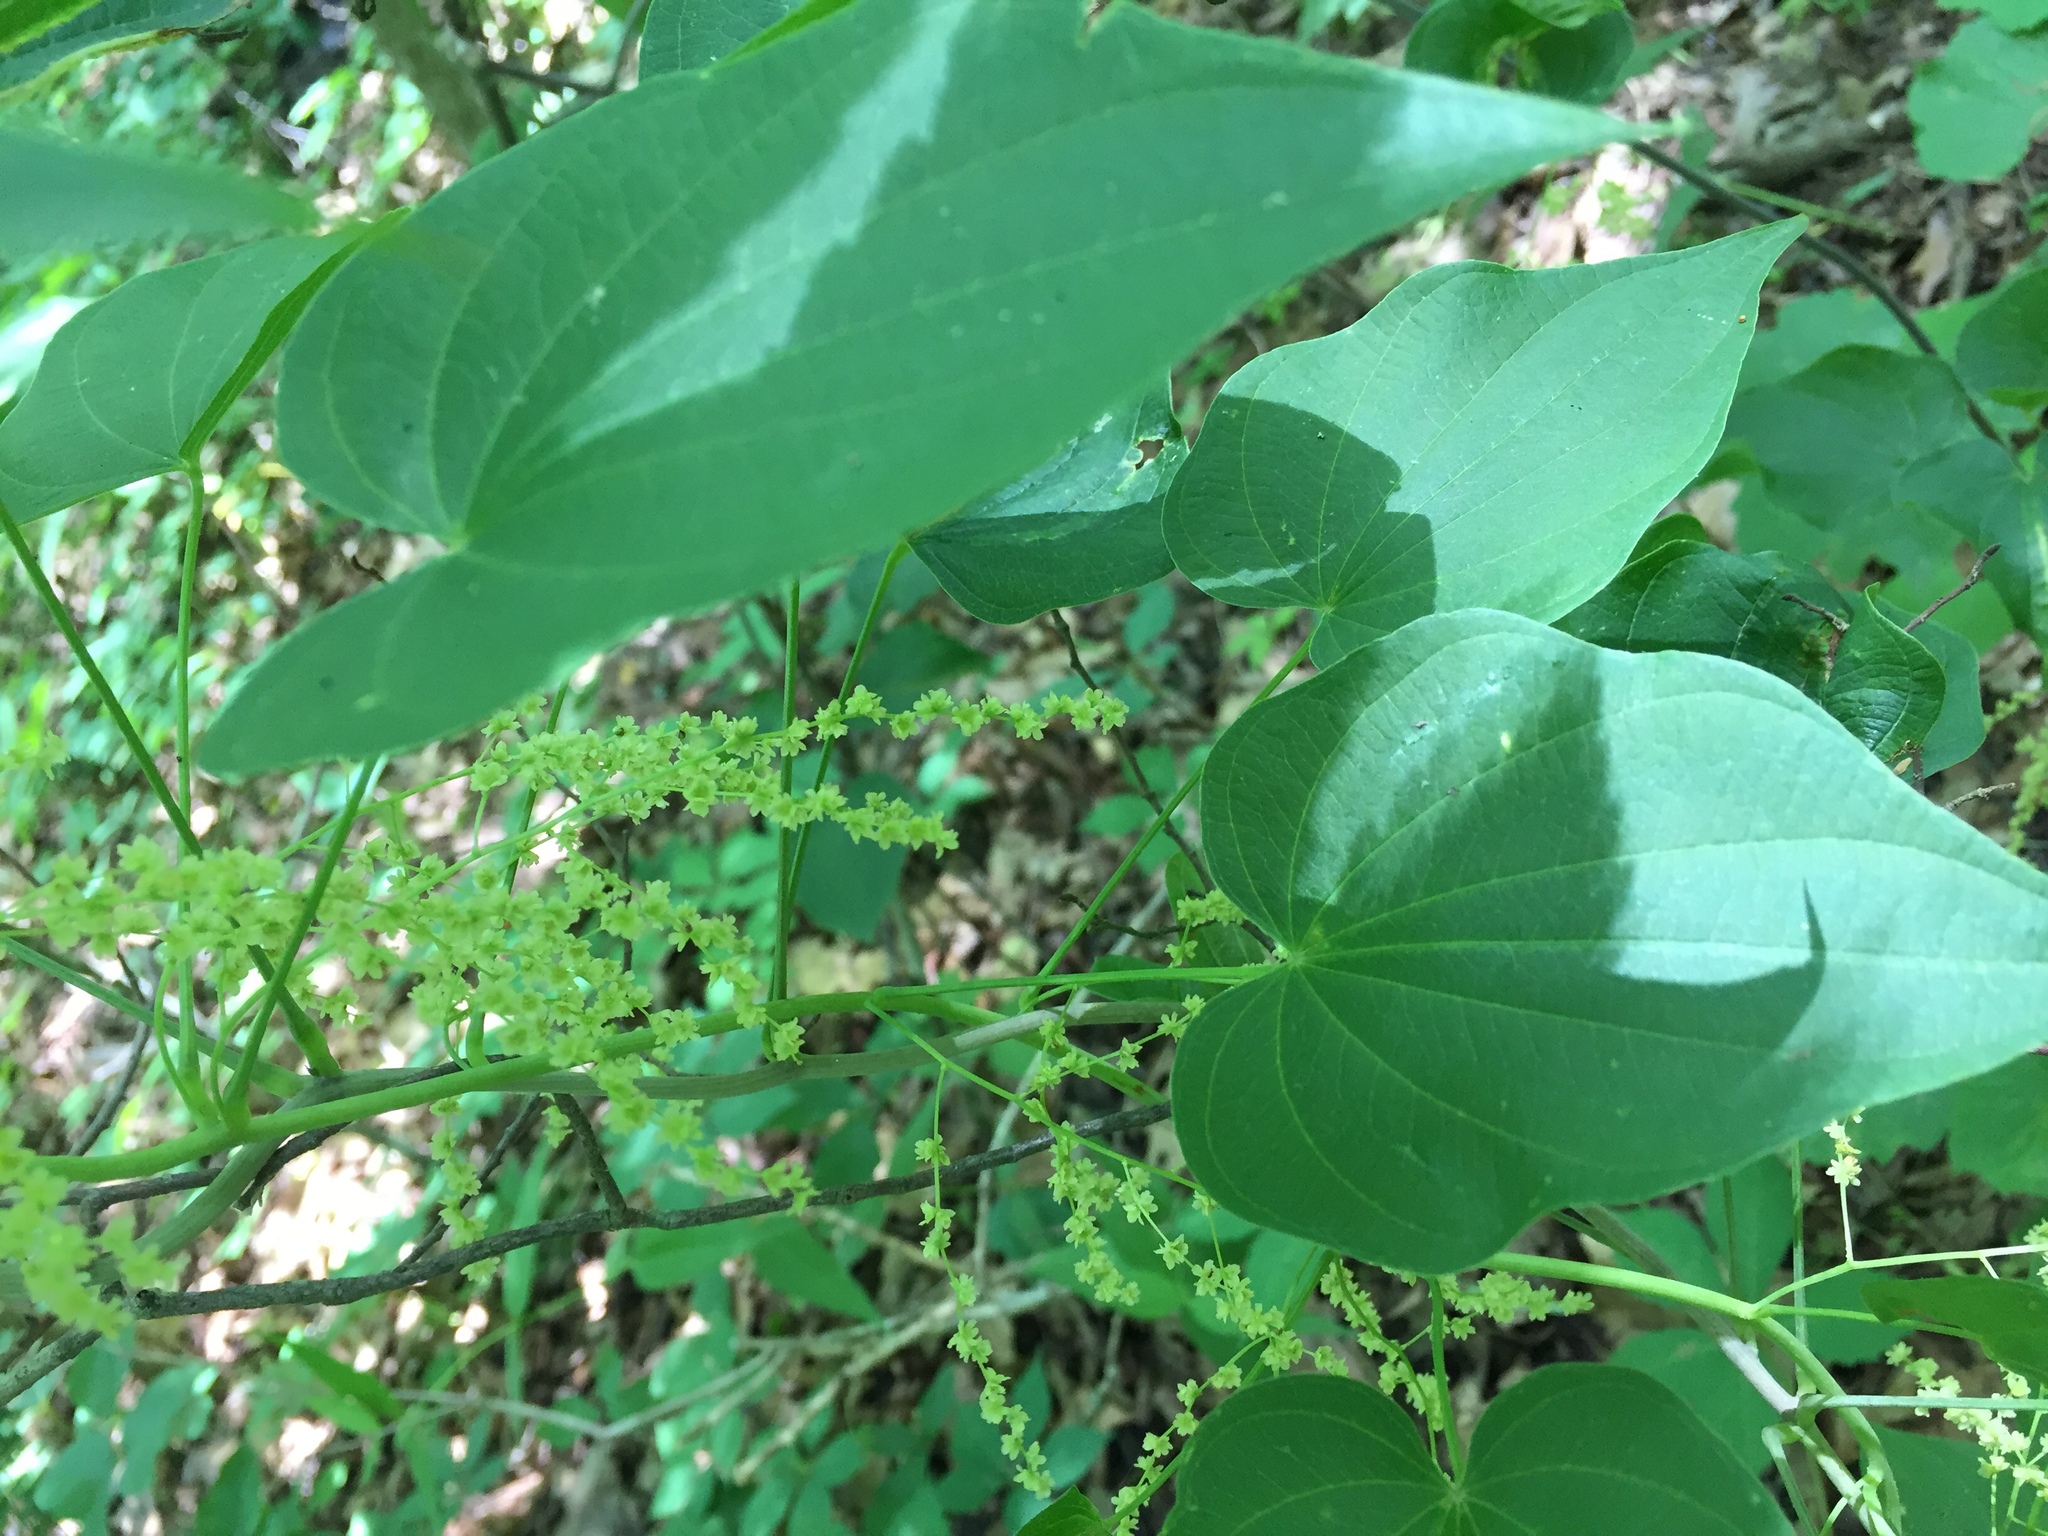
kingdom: Plantae
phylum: Tracheophyta
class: Liliopsida
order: Dioscoreales
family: Dioscoreaceae
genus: Dioscorea
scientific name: Dioscorea villosa
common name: Wild yam
